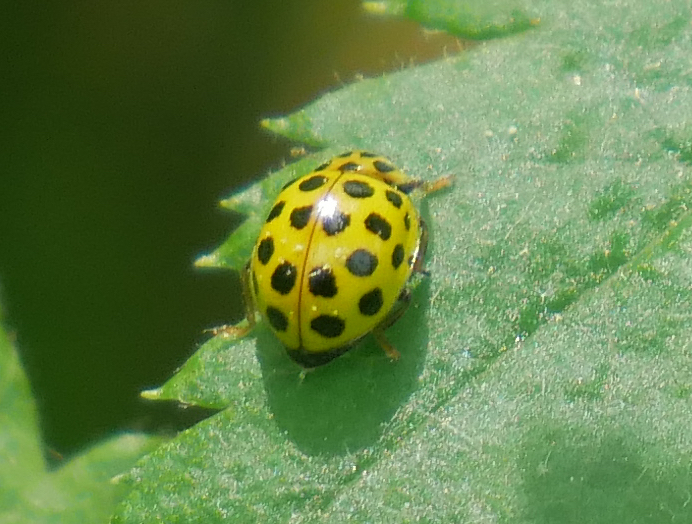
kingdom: Animalia
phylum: Arthropoda
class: Insecta
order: Coleoptera
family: Coccinellidae
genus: Psyllobora
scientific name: Psyllobora vigintiduopunctata
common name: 22-spot ladybird
